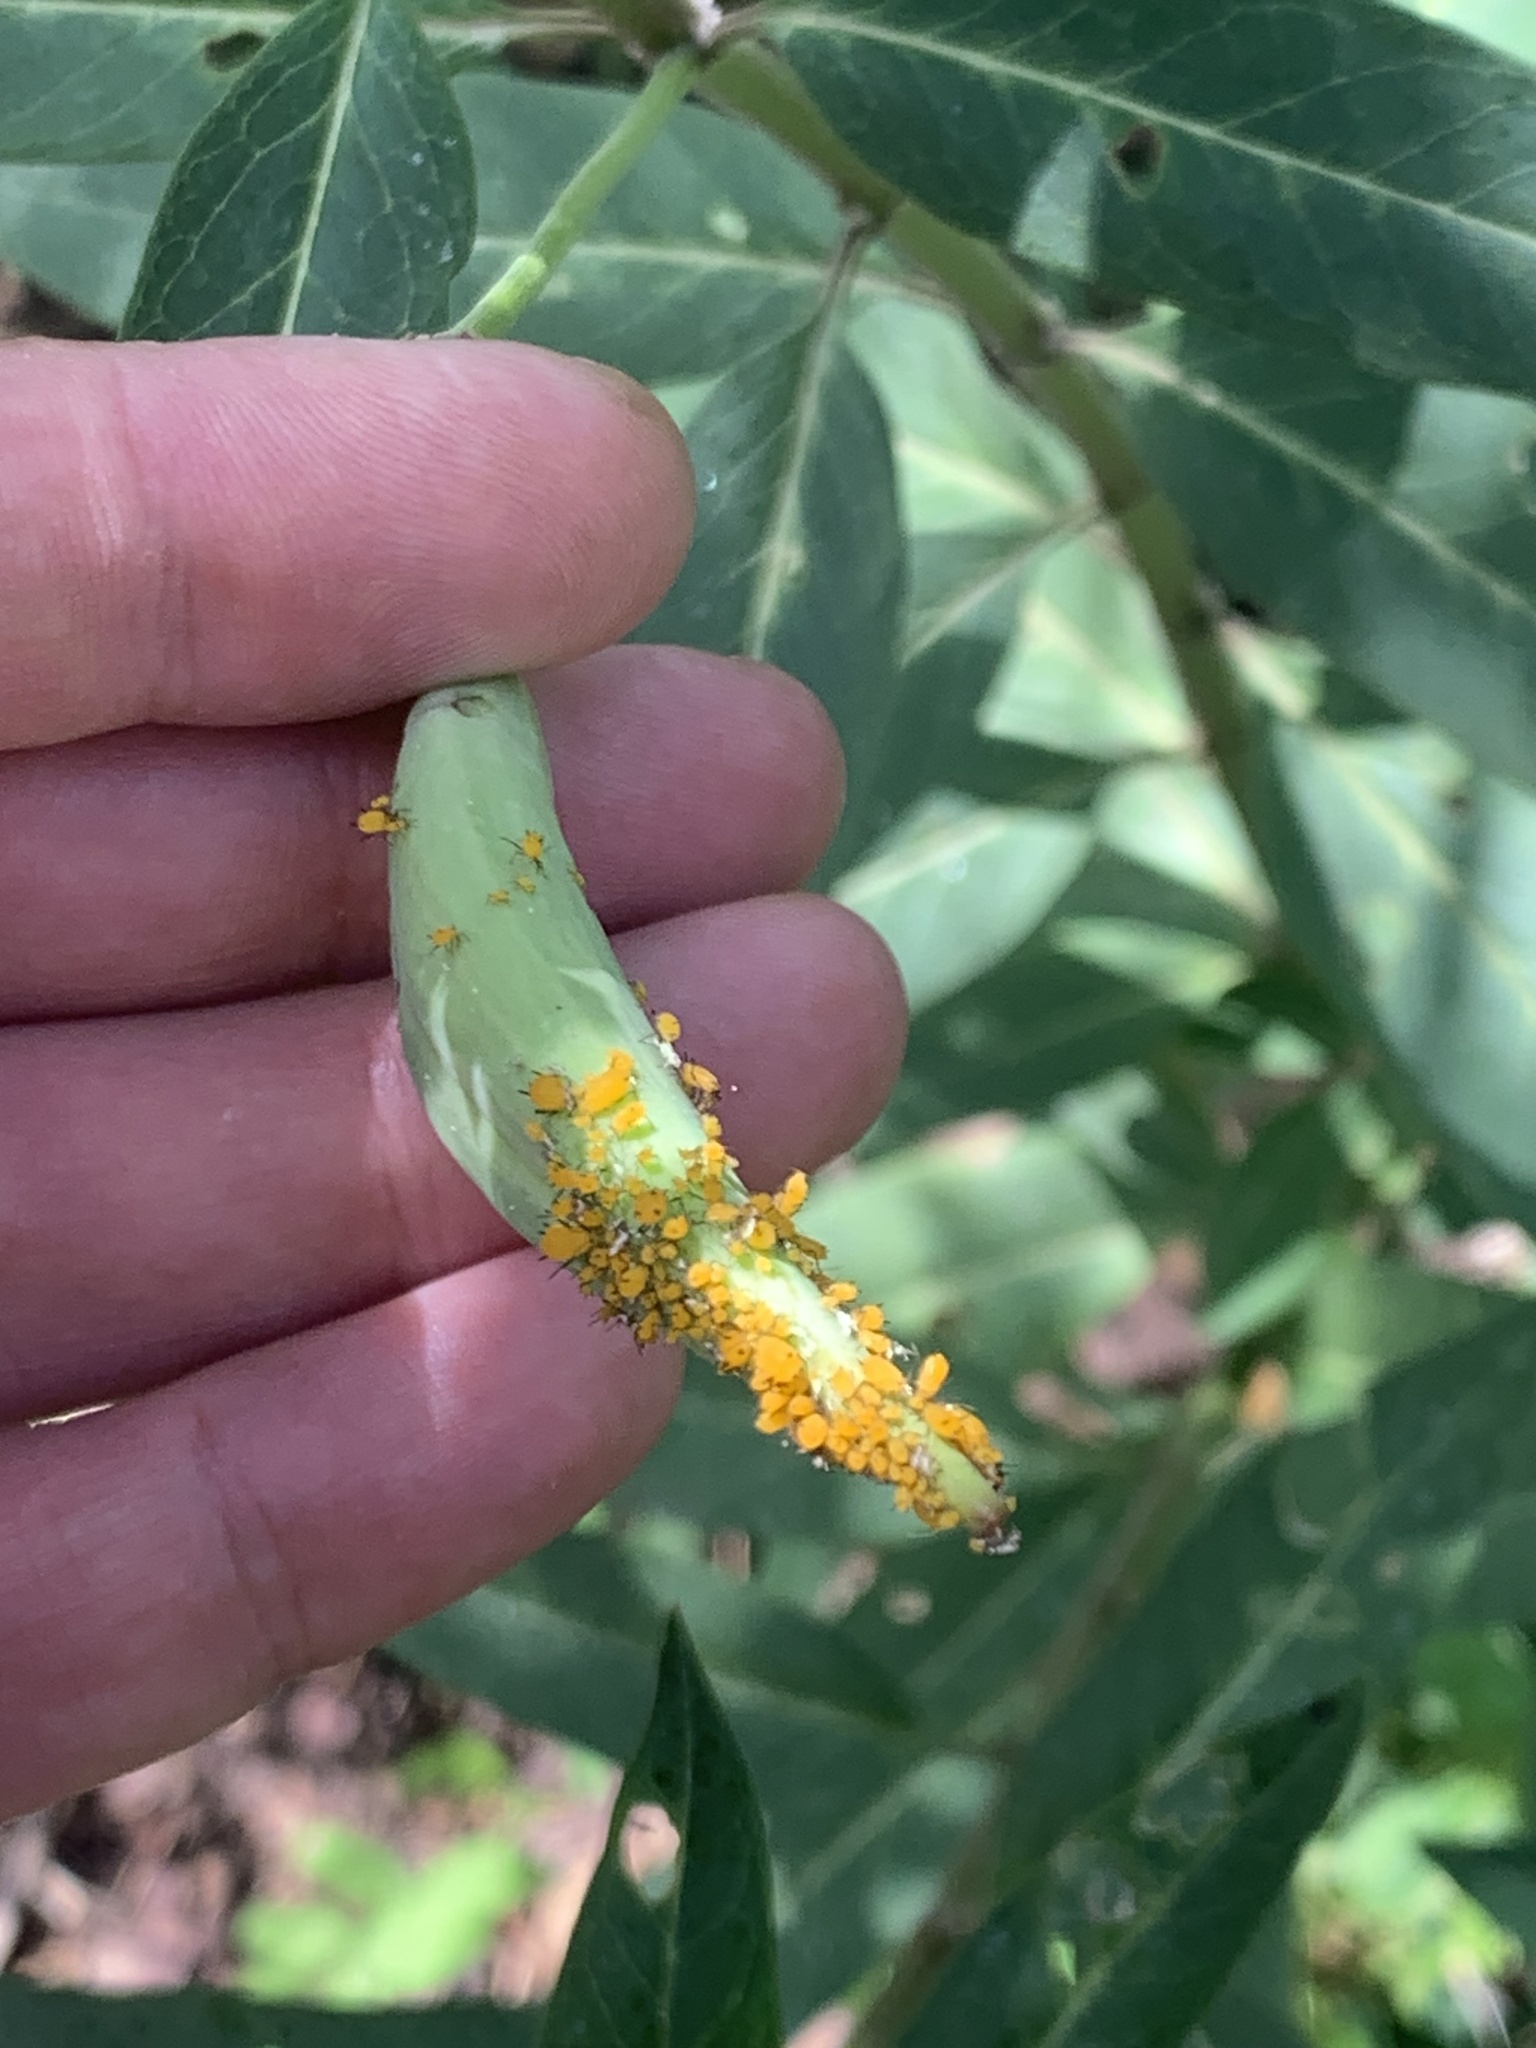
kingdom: Animalia
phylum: Arthropoda
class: Insecta
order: Hemiptera
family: Aphididae
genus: Aphis
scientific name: Aphis nerii
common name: Oleander aphid
